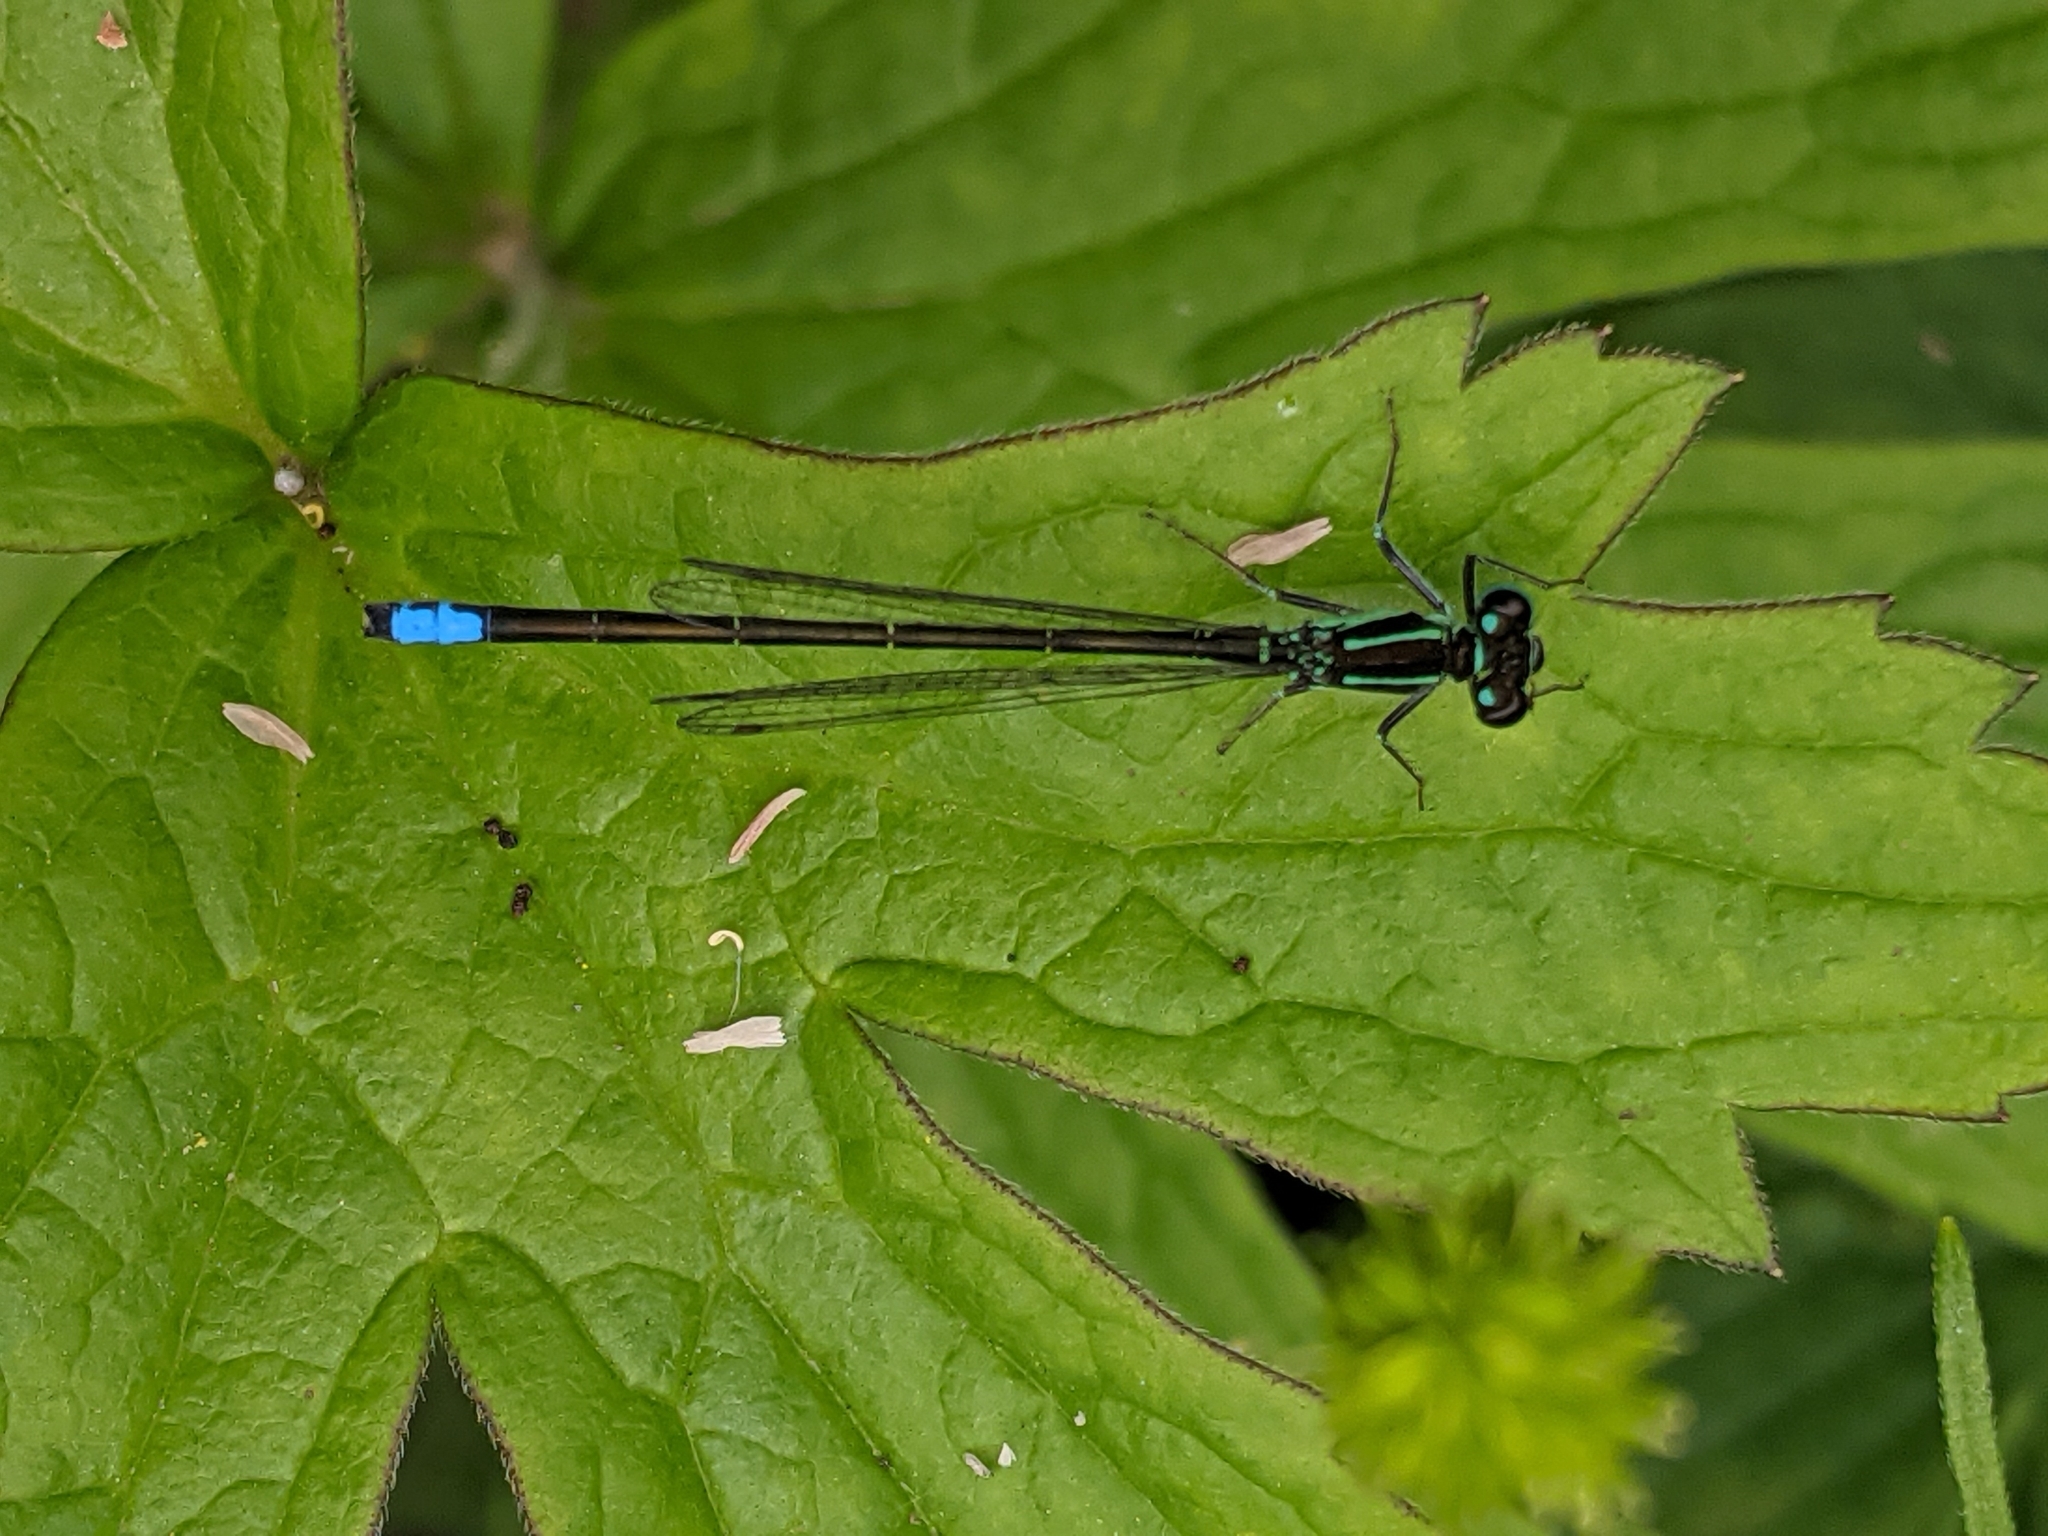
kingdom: Animalia
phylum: Arthropoda
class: Insecta
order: Odonata
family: Coenagrionidae
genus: Ischnura
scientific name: Ischnura verticalis
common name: Eastern forktail
